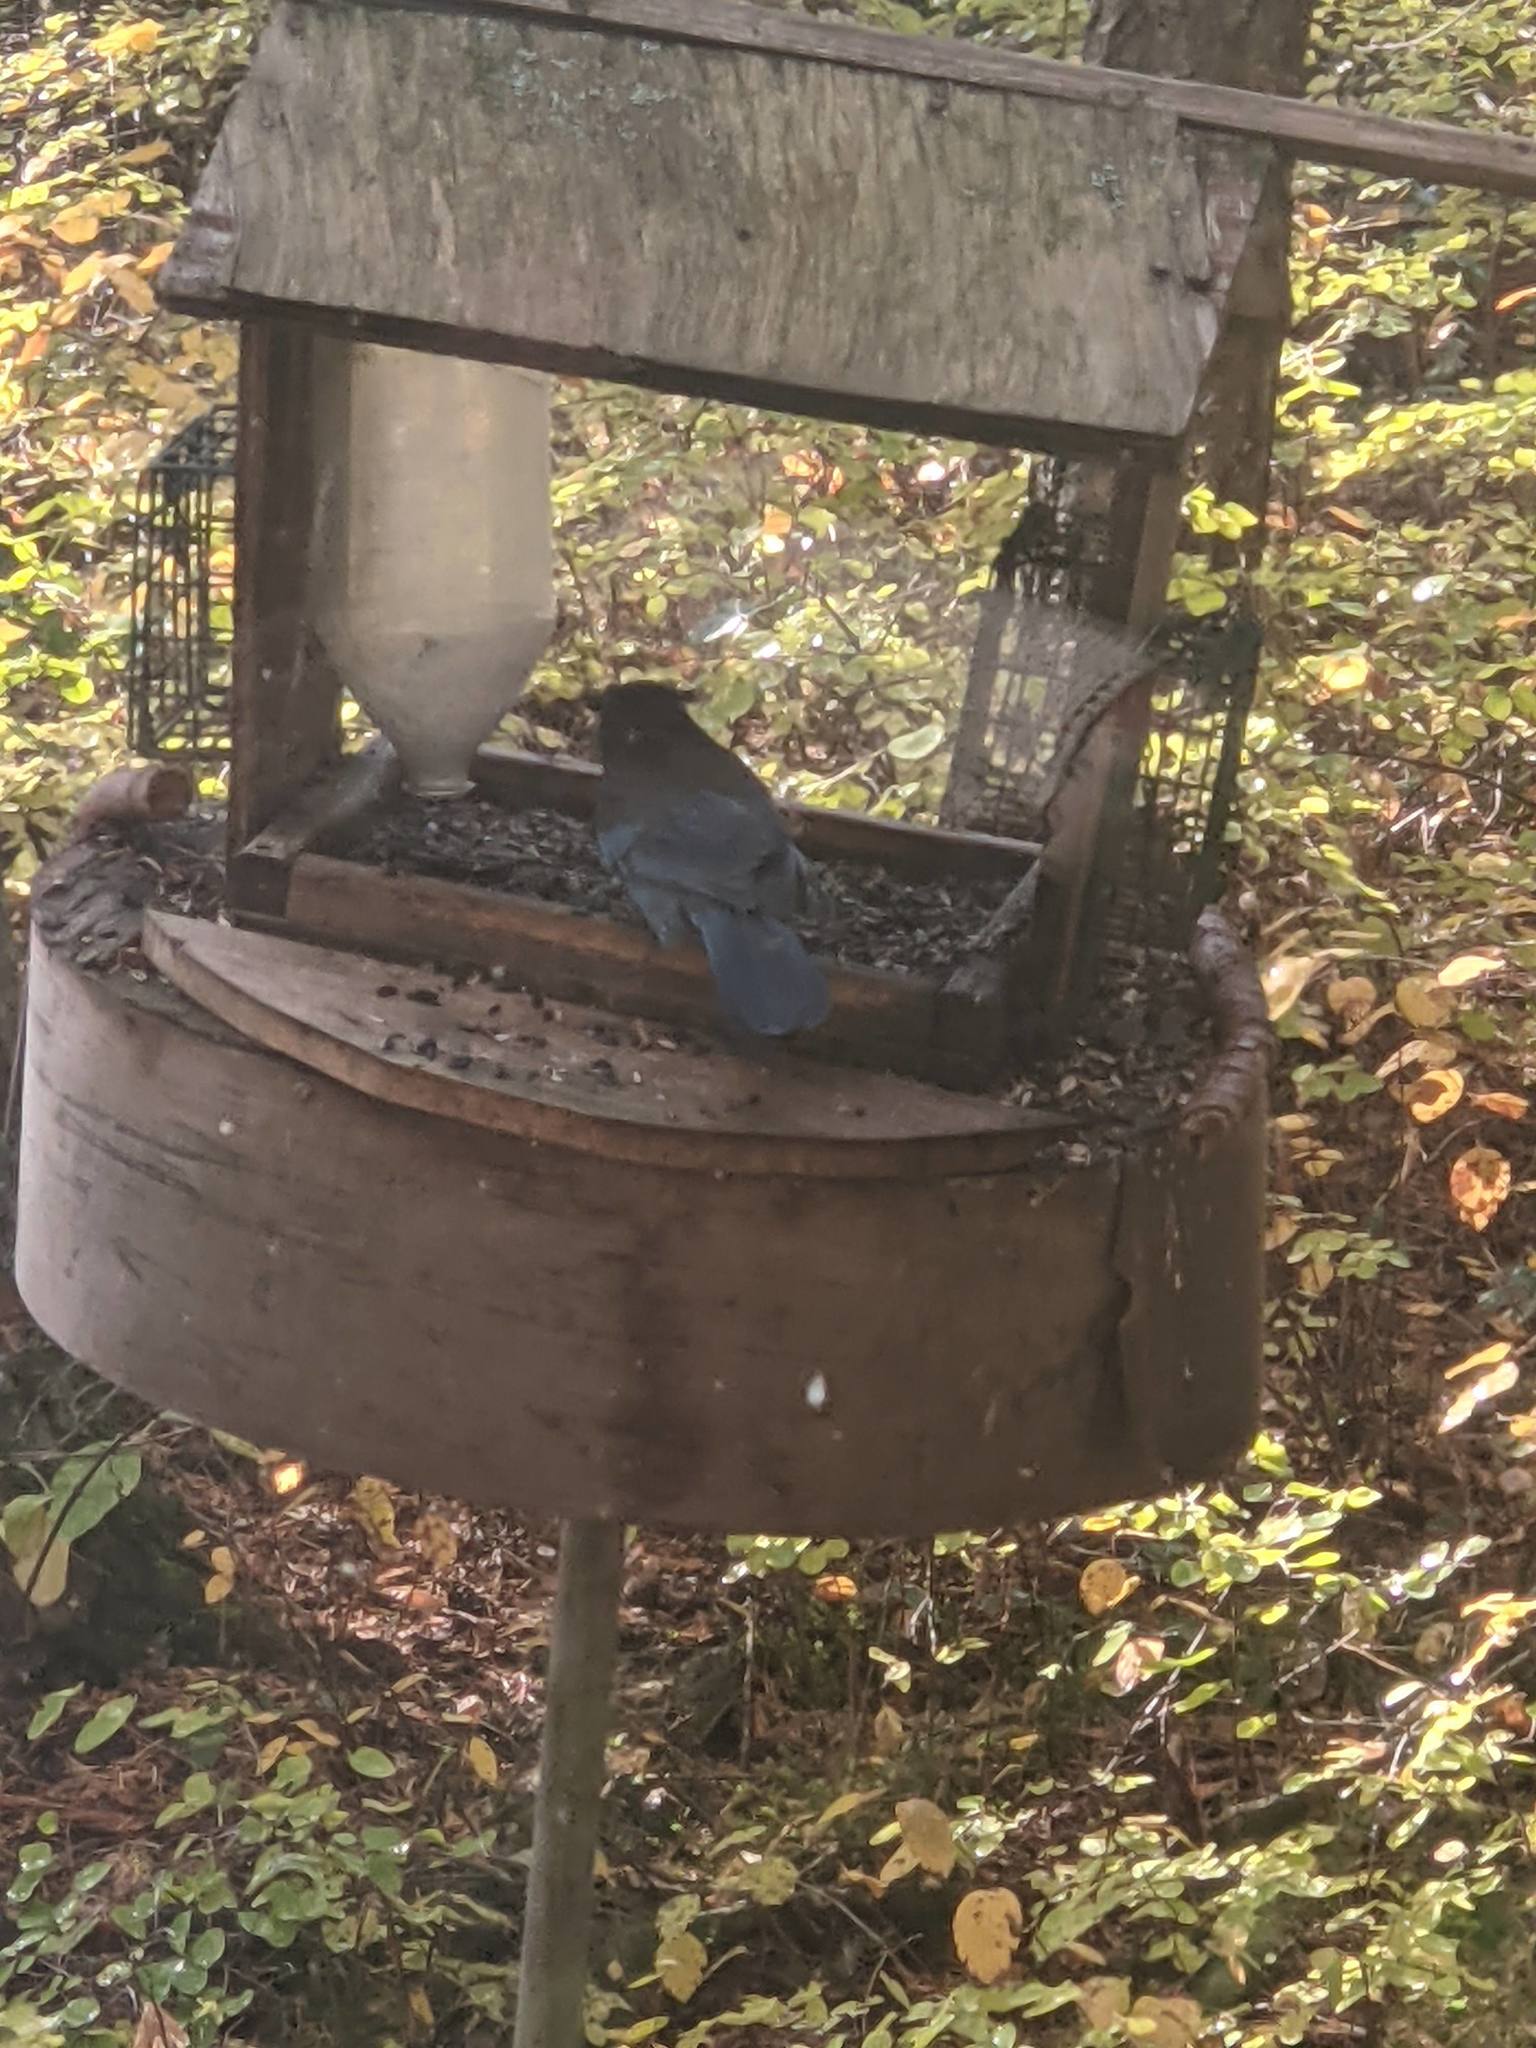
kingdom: Animalia
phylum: Chordata
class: Aves
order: Passeriformes
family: Corvidae
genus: Cyanocitta
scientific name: Cyanocitta stelleri
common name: Steller's jay
